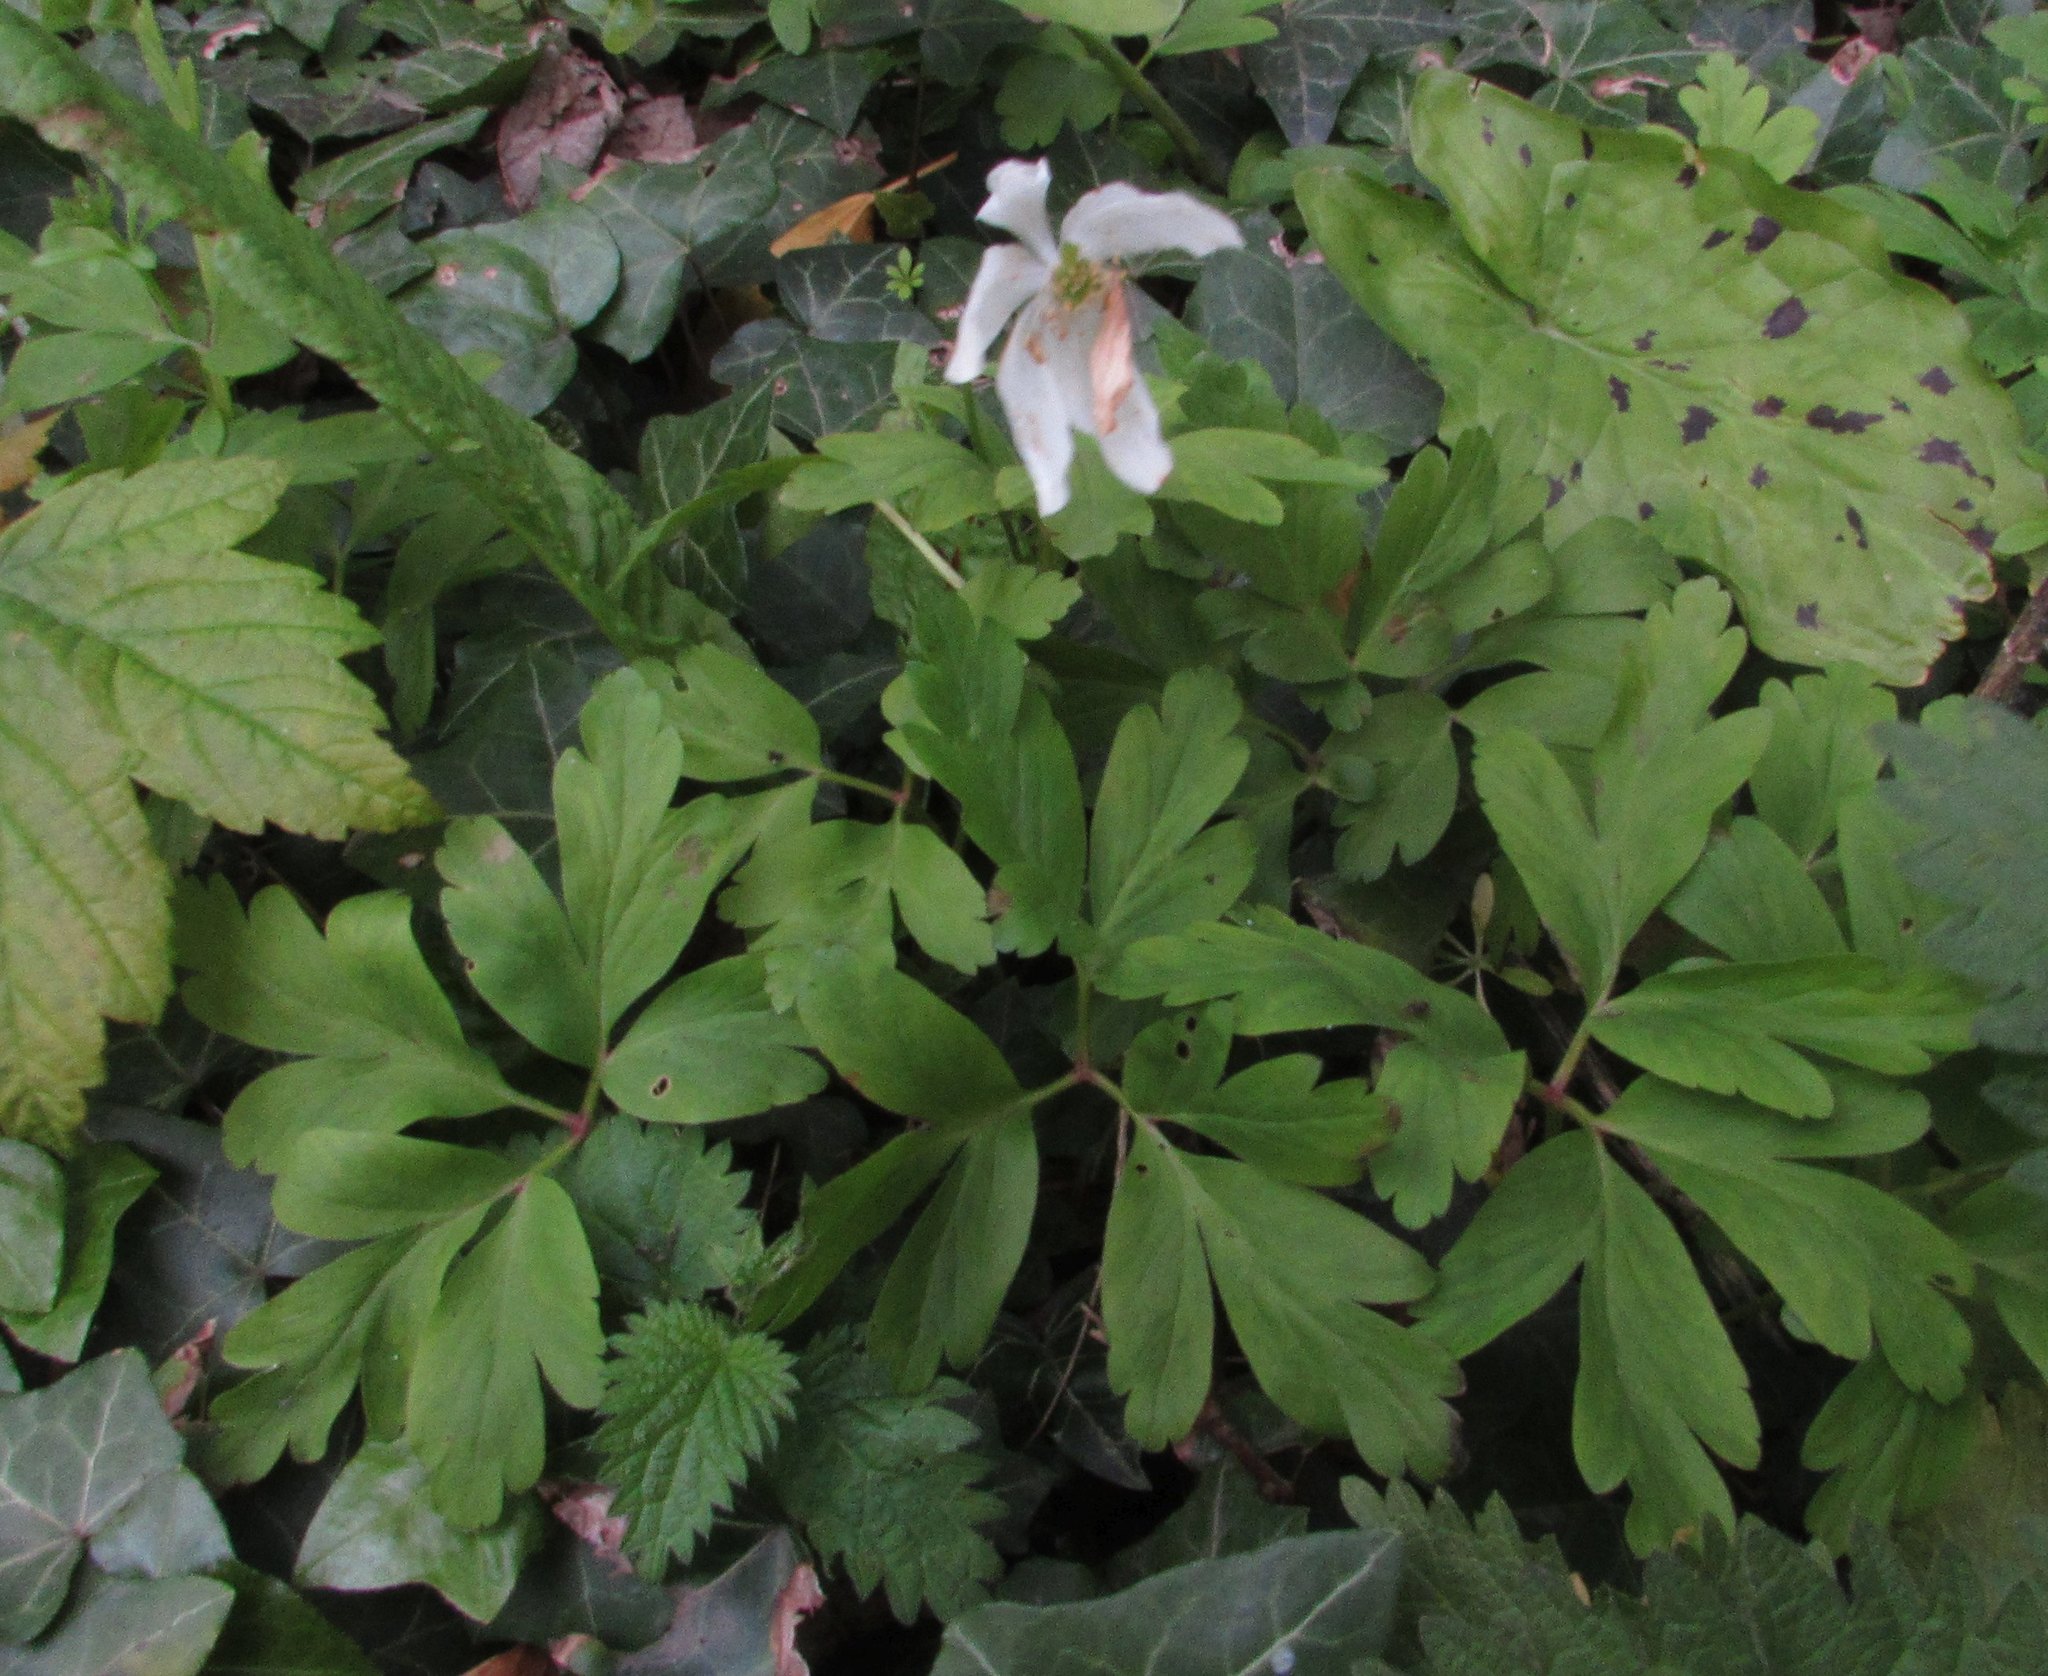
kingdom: Plantae
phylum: Tracheophyta
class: Magnoliopsida
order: Ranunculales
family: Ranunculaceae
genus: Anemone
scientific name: Anemone nemorosa
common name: Wood anemone
